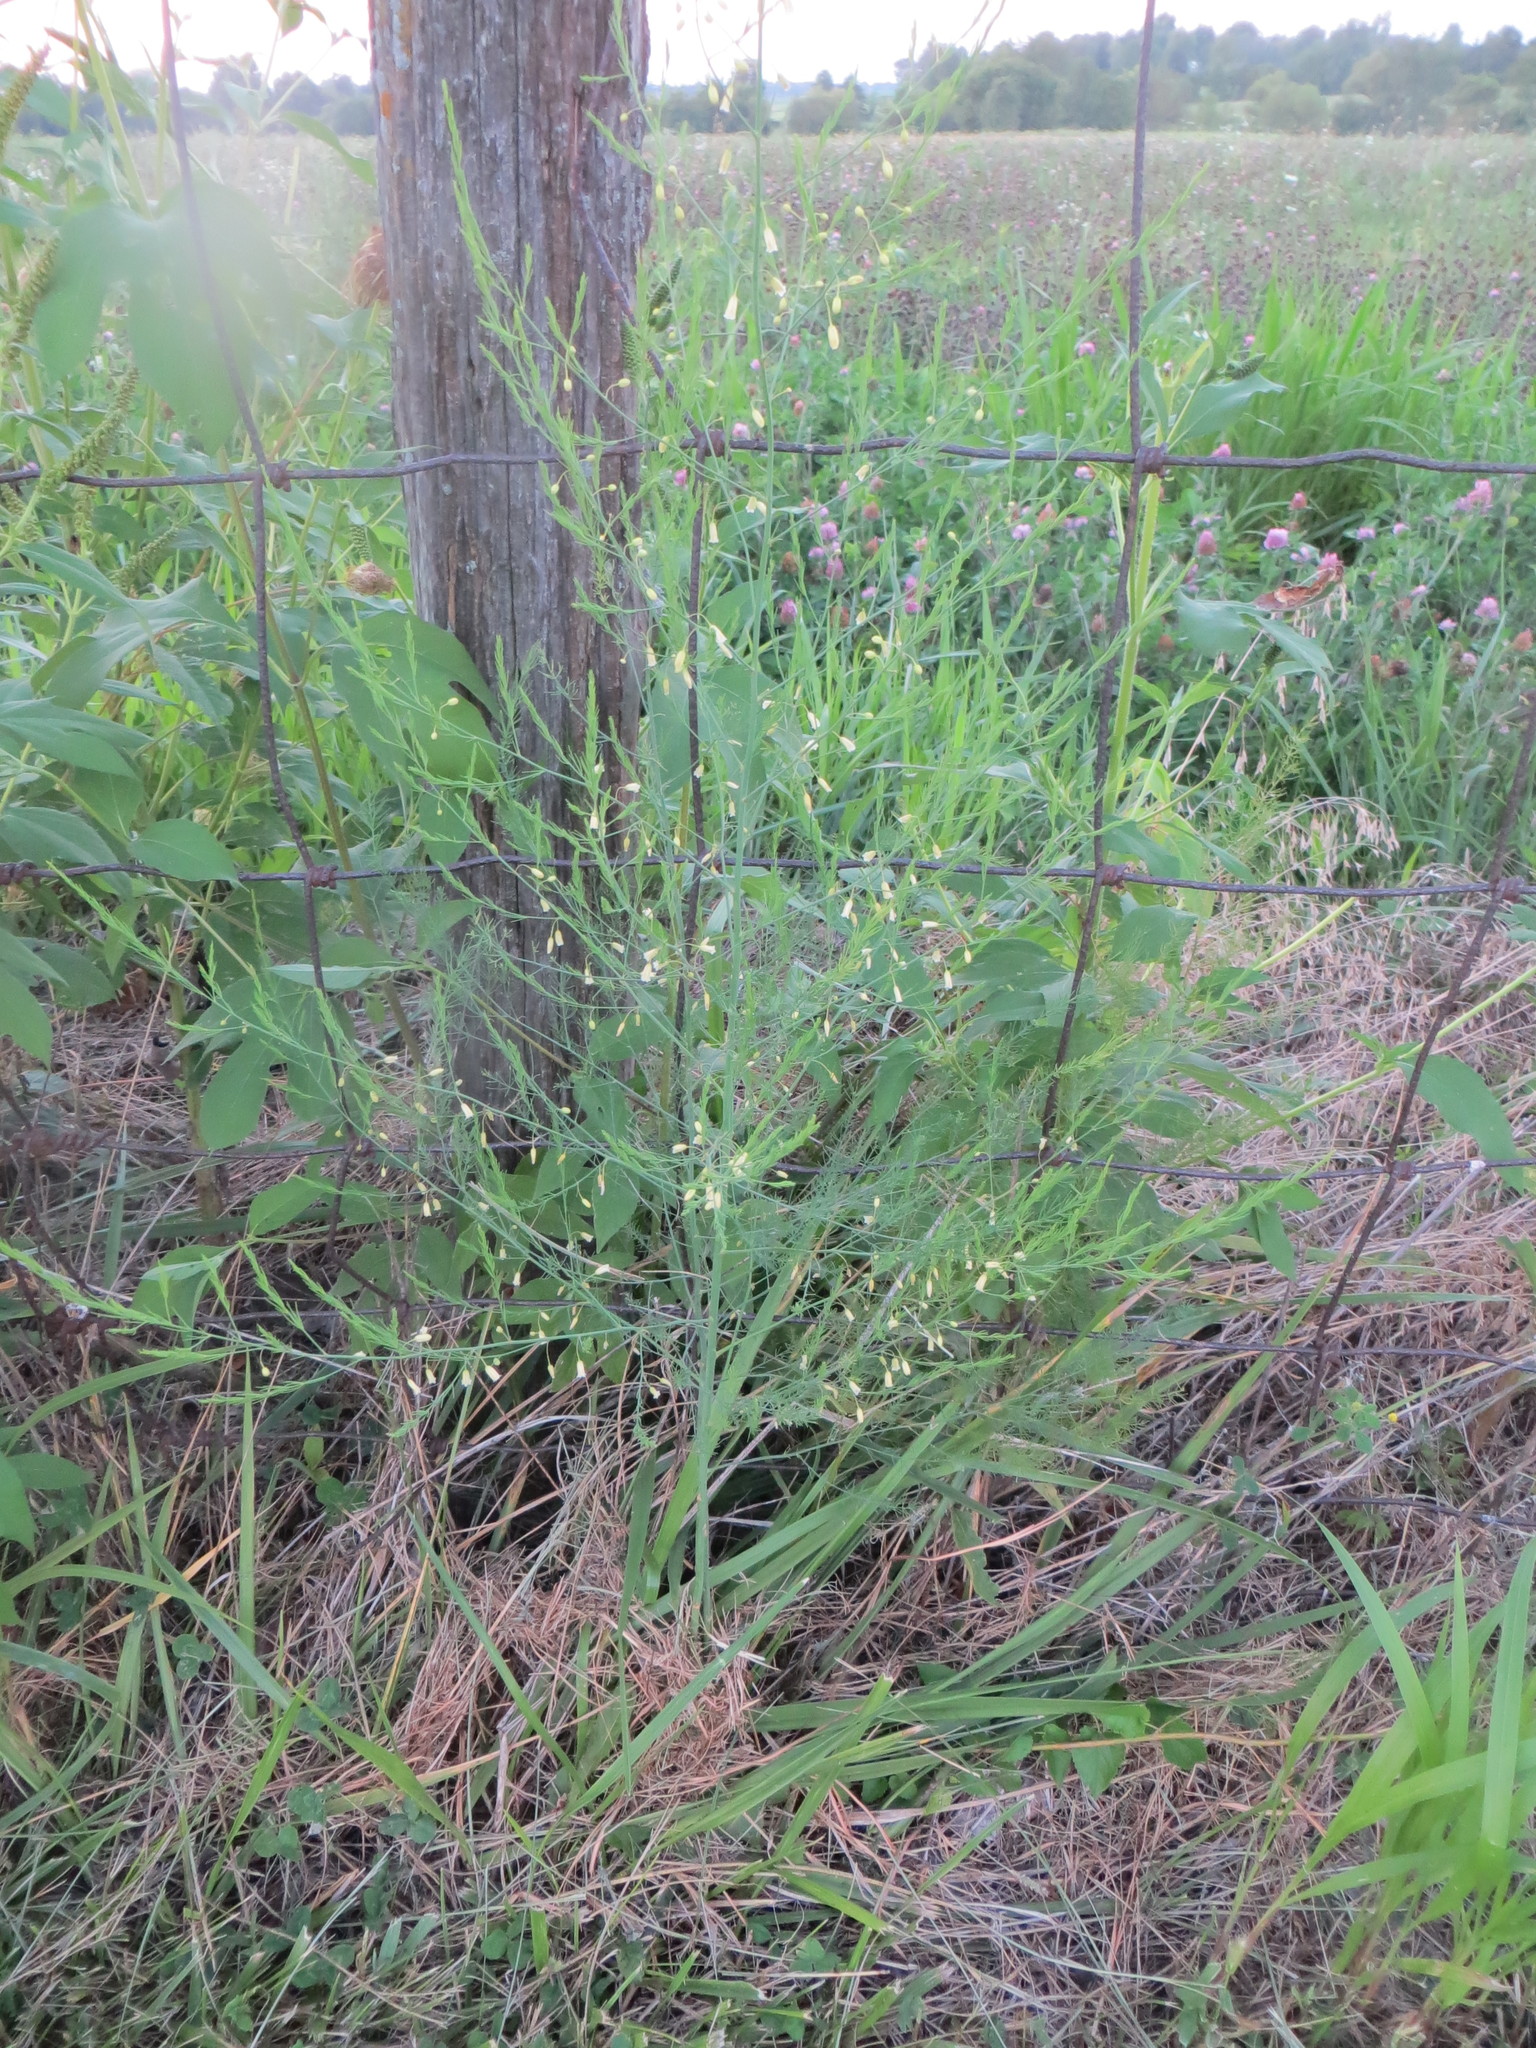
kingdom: Plantae
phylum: Tracheophyta
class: Liliopsida
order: Asparagales
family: Asparagaceae
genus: Asparagus
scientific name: Asparagus officinalis
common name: Garden asparagus
